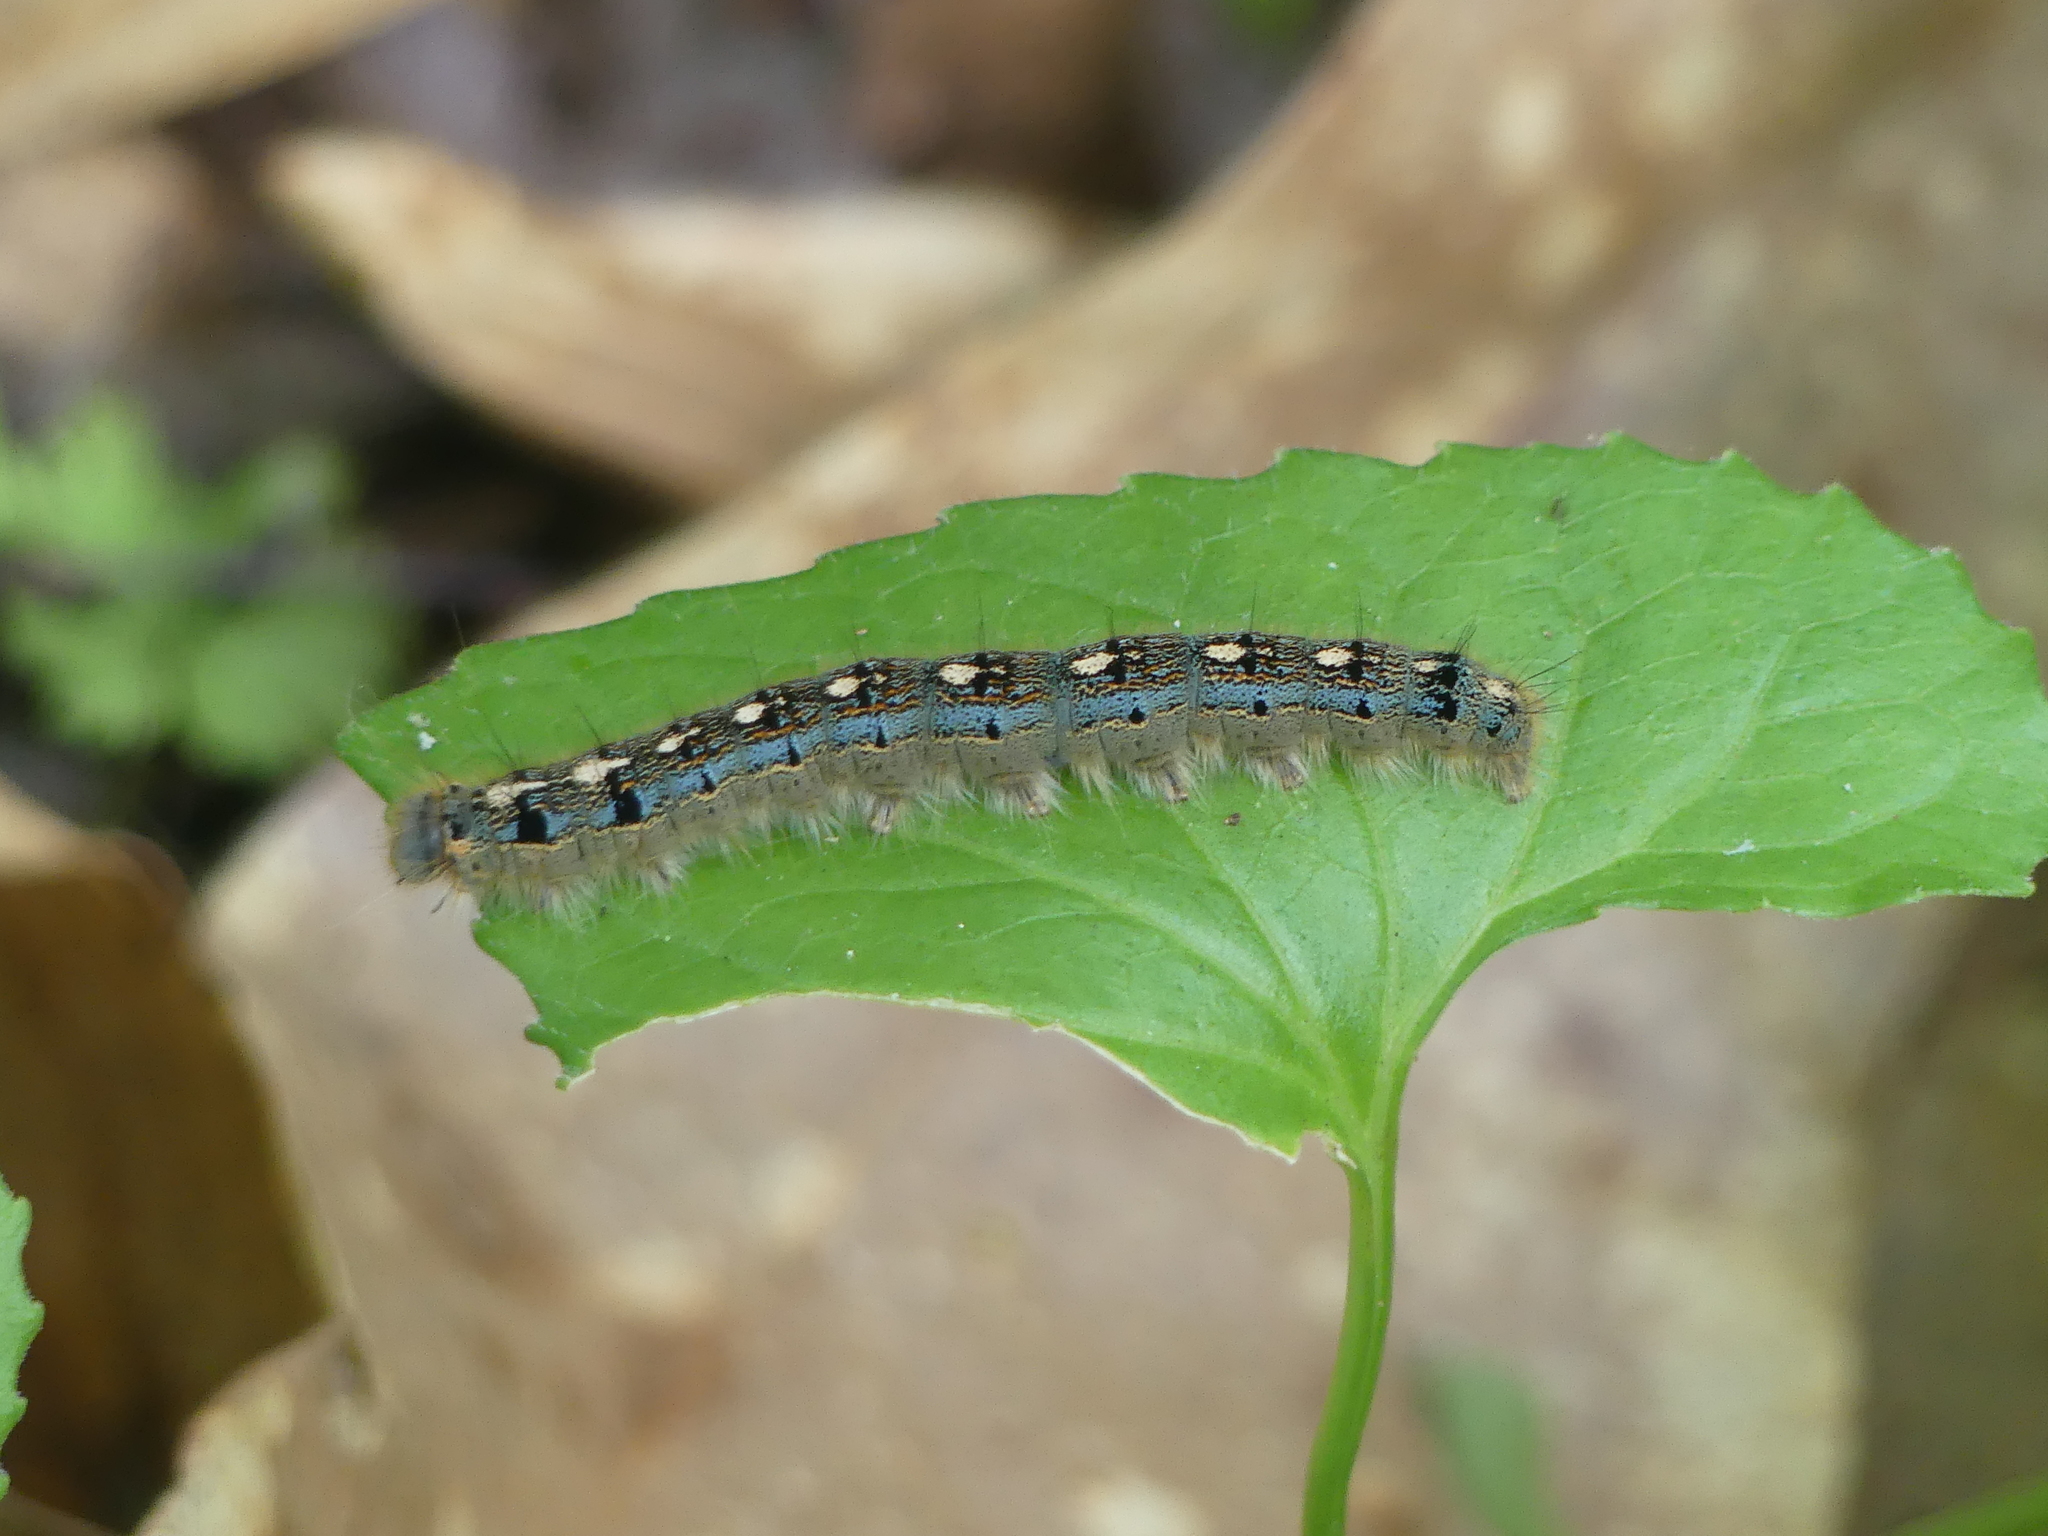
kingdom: Animalia
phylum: Arthropoda
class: Insecta
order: Lepidoptera
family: Lasiocampidae
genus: Malacosoma
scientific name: Malacosoma disstria
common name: Forest tent caterpillar
